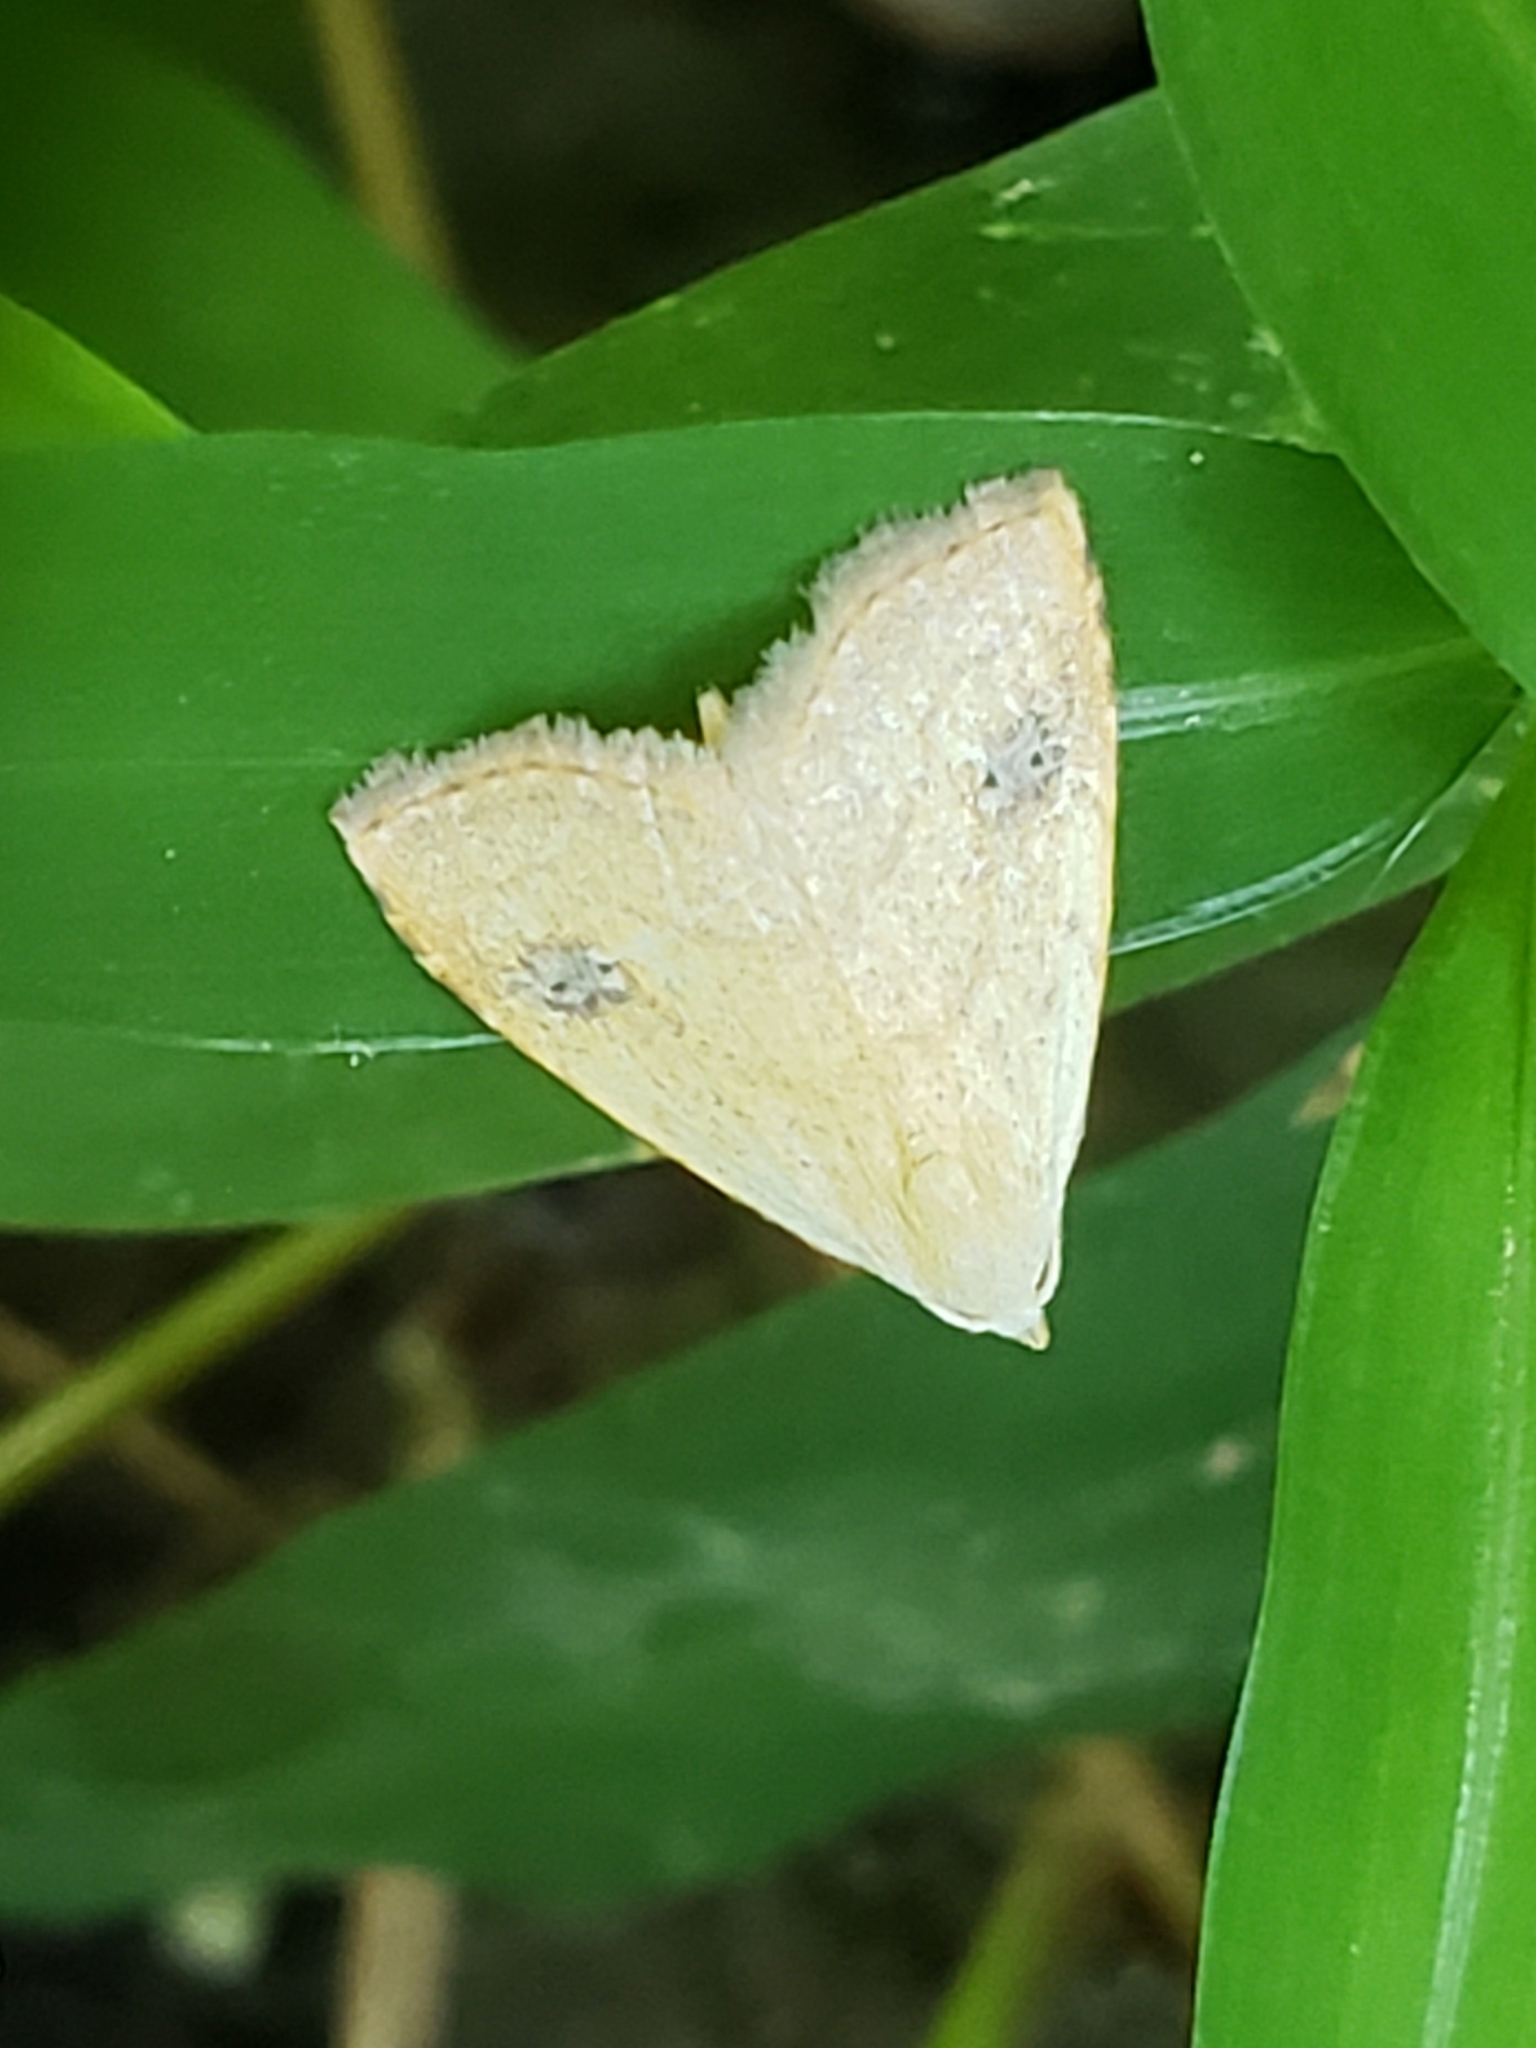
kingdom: Animalia
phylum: Arthropoda
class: Insecta
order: Lepidoptera
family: Erebidae
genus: Rivula
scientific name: Rivula propinqualis
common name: Spotted grass moth
